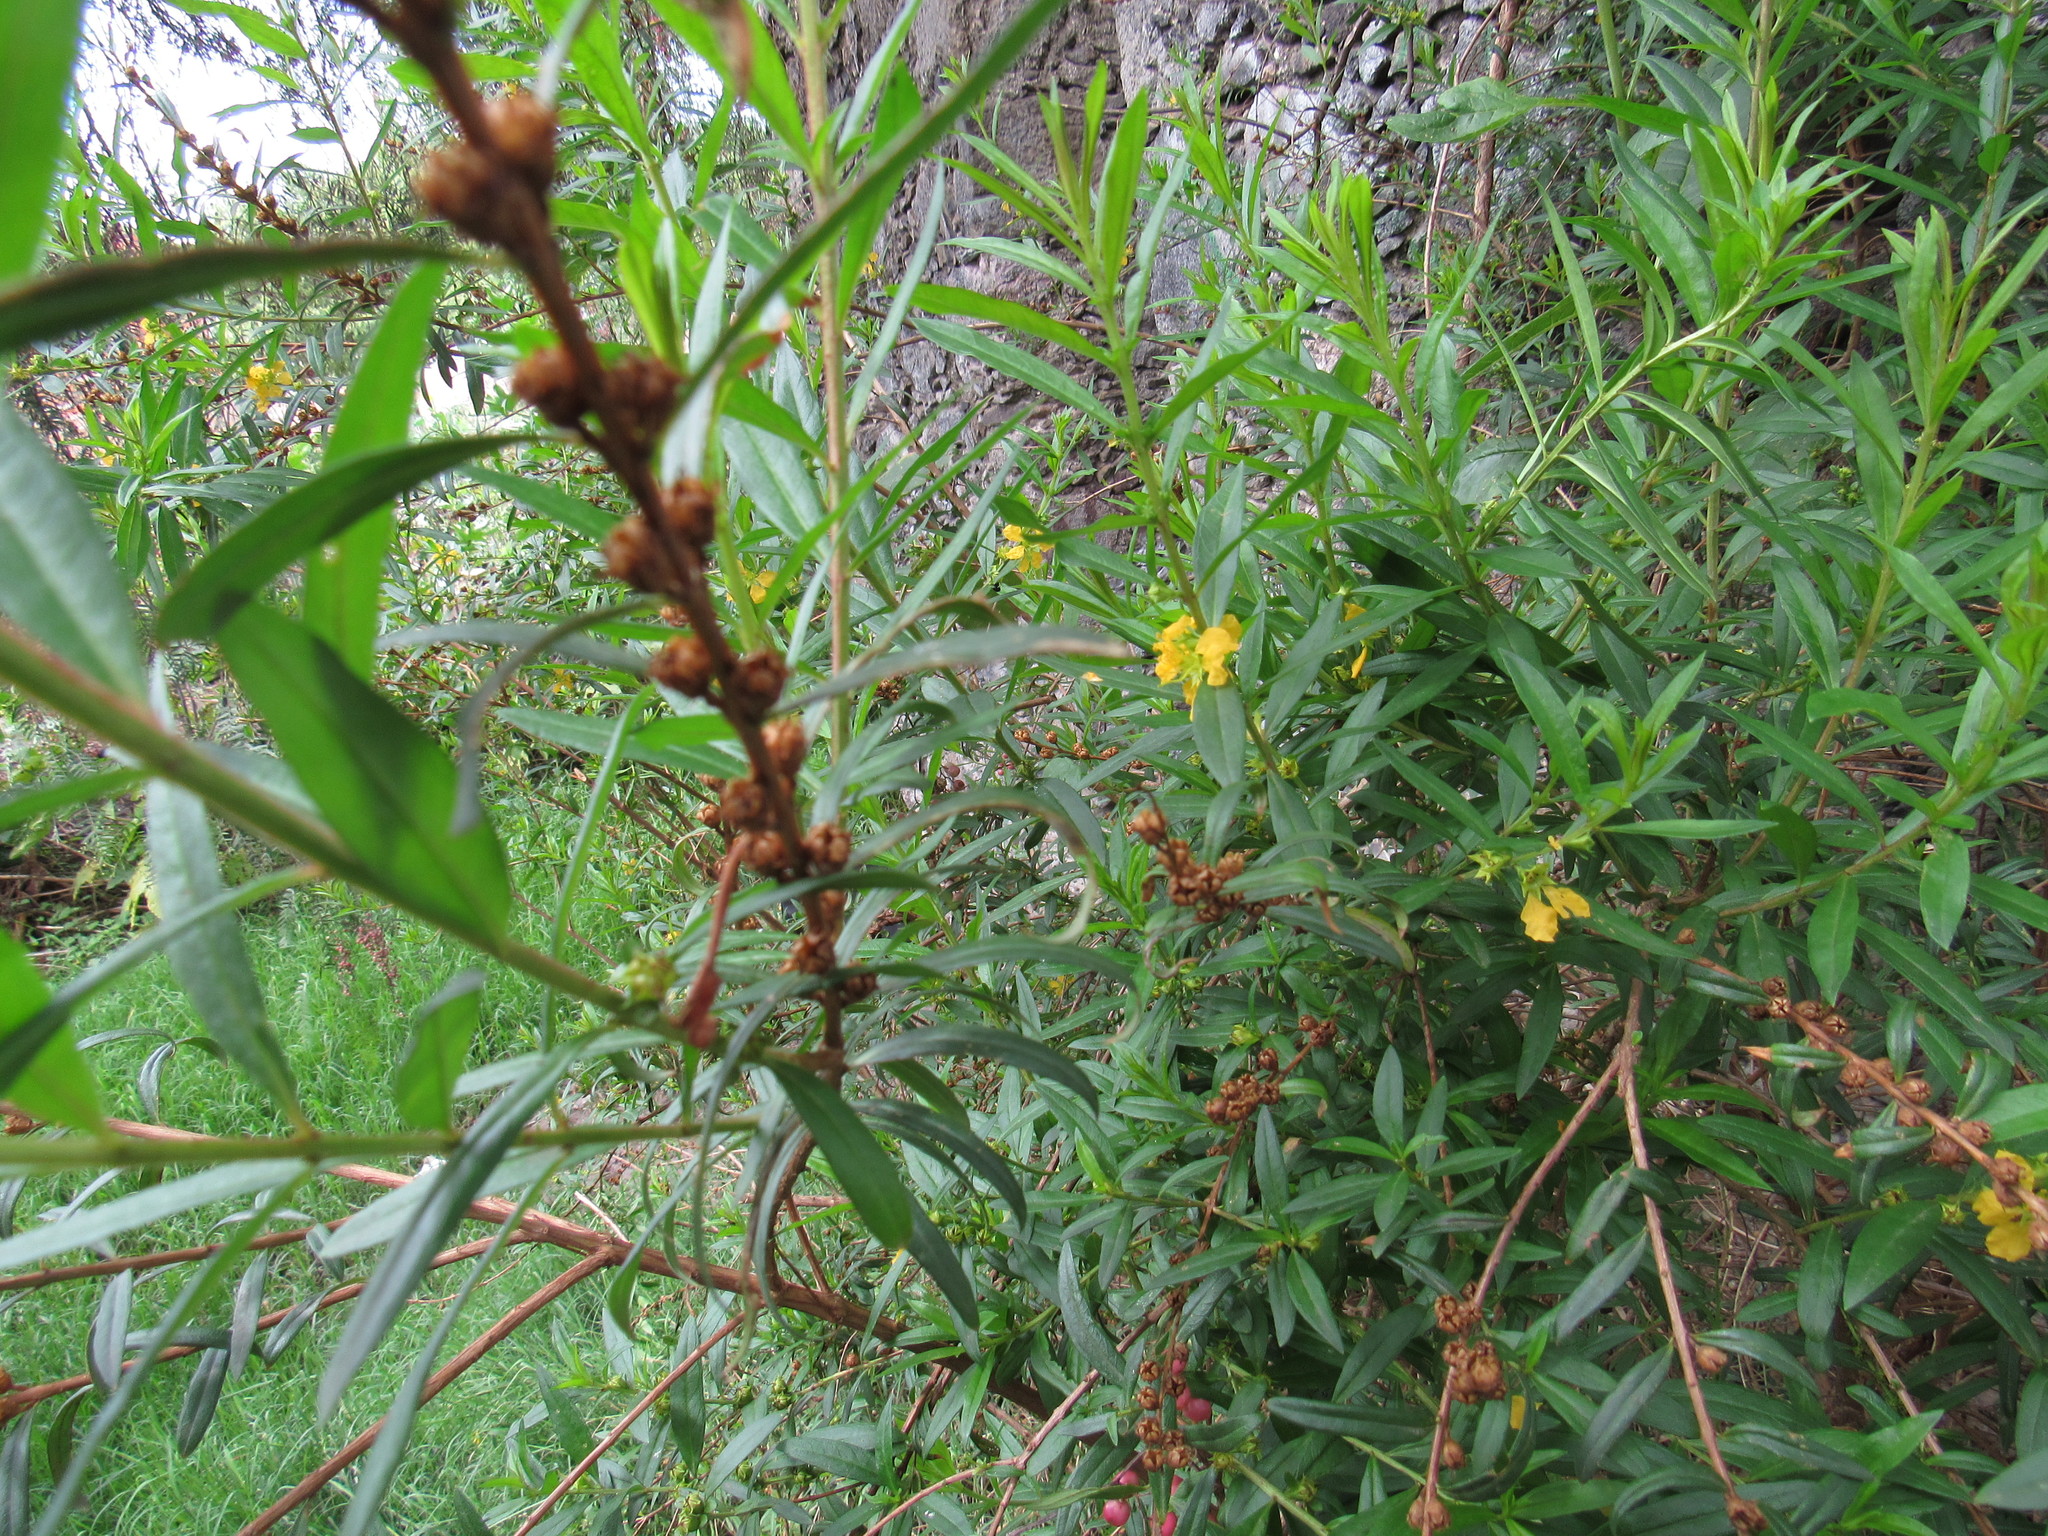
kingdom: Plantae
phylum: Tracheophyta
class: Magnoliopsida
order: Myrtales
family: Lythraceae
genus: Heimia
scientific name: Heimia salicifolia
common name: Willow-leaf heimia
